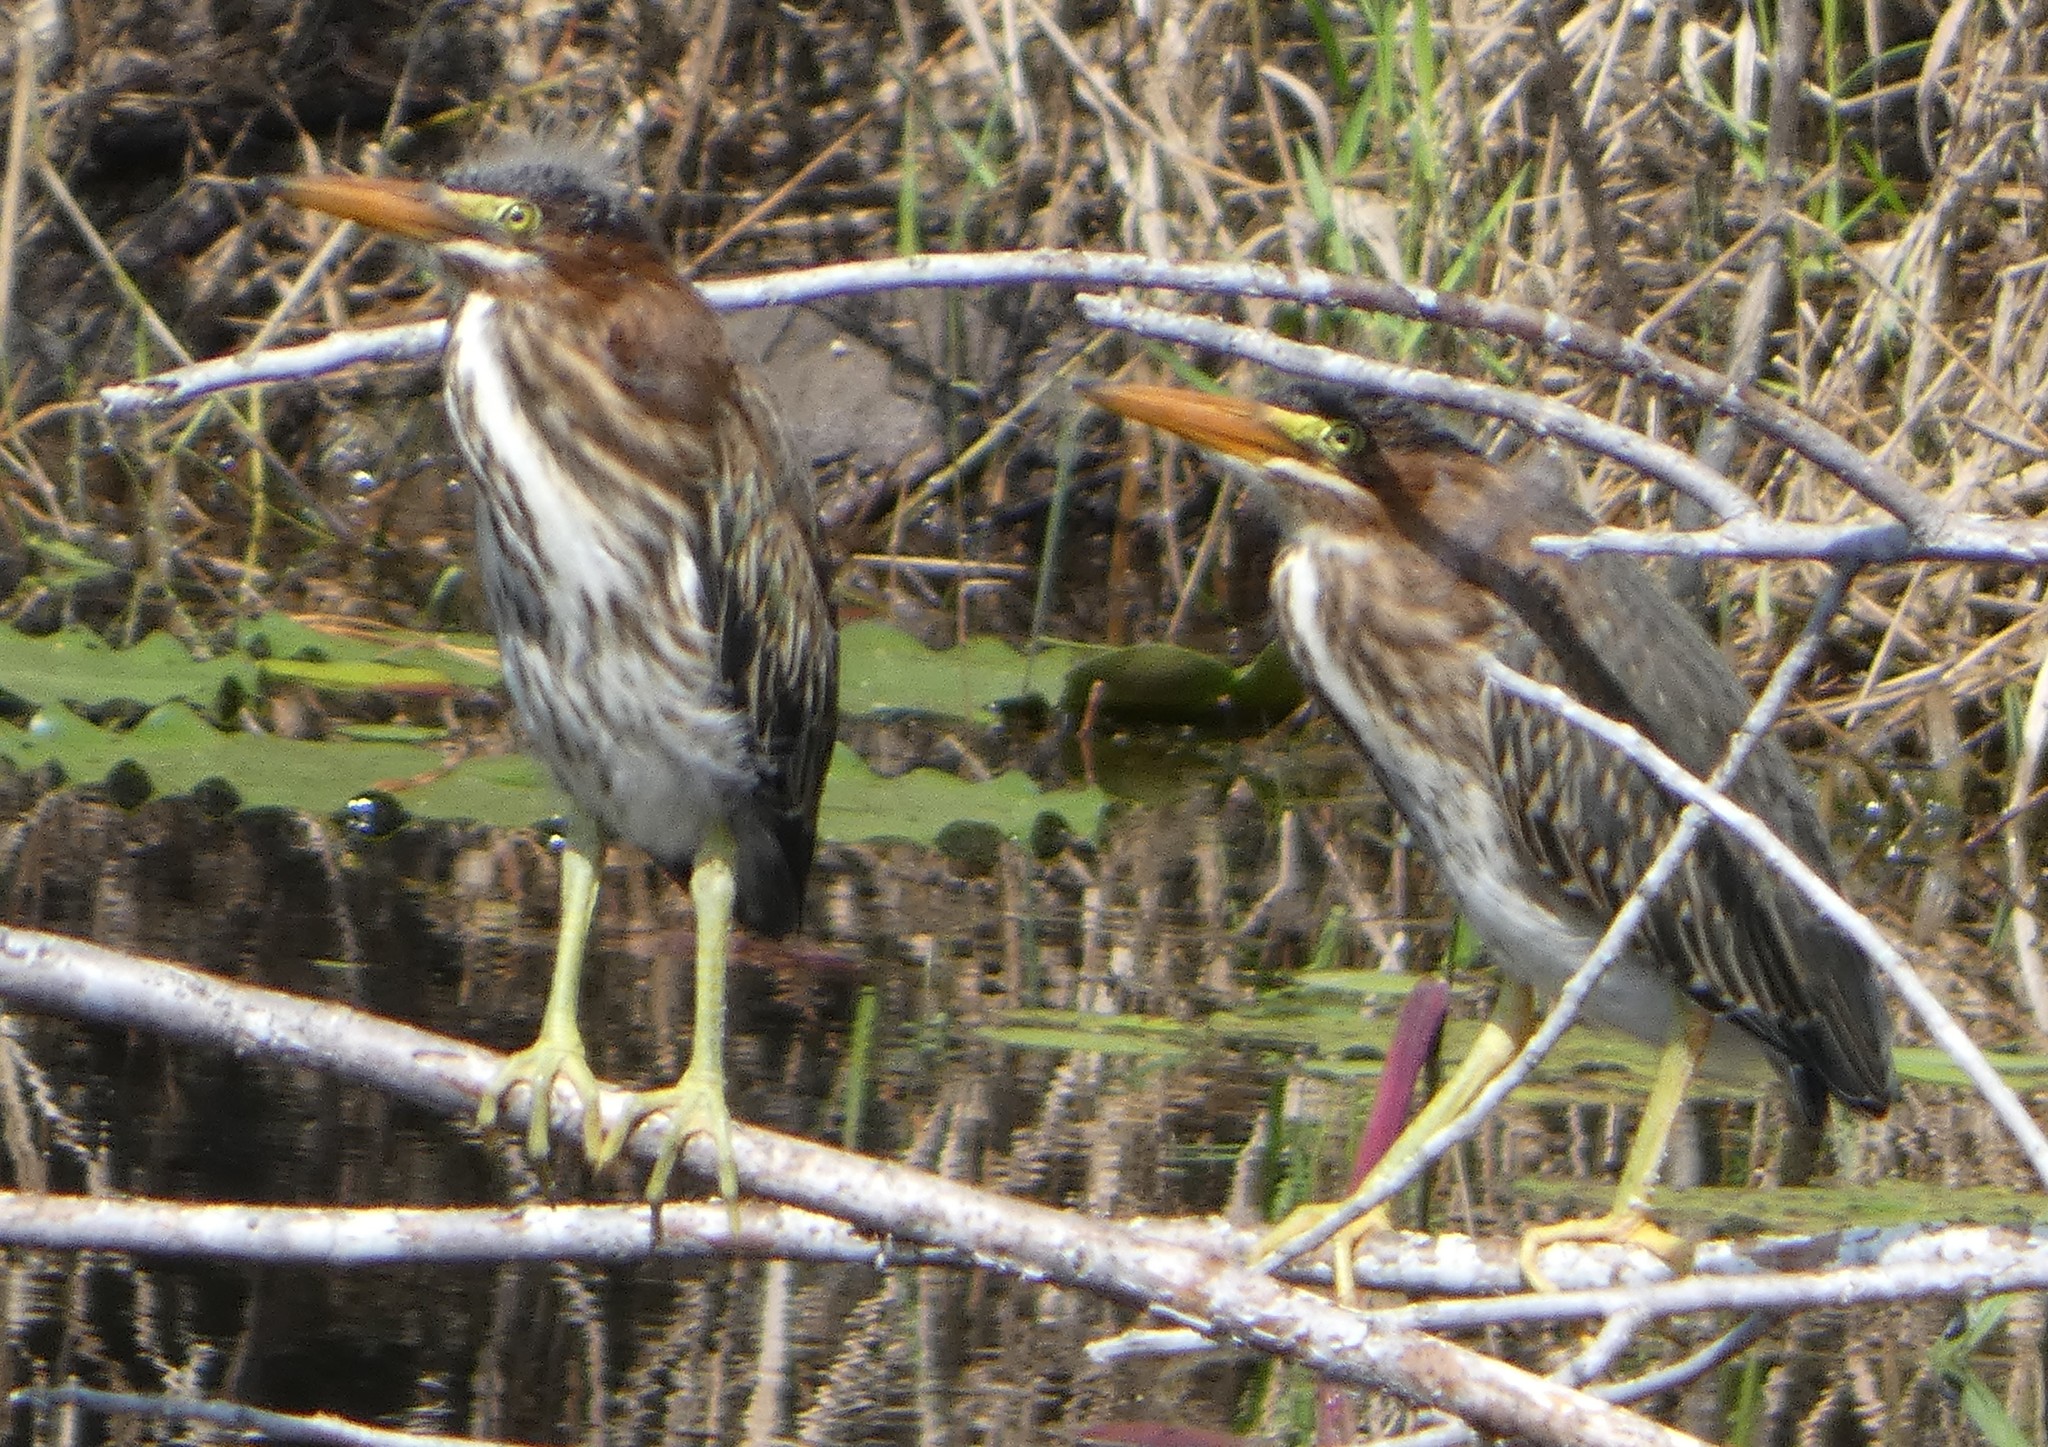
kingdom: Animalia
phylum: Chordata
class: Aves
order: Pelecaniformes
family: Ardeidae
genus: Butorides
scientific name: Butorides virescens
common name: Green heron
